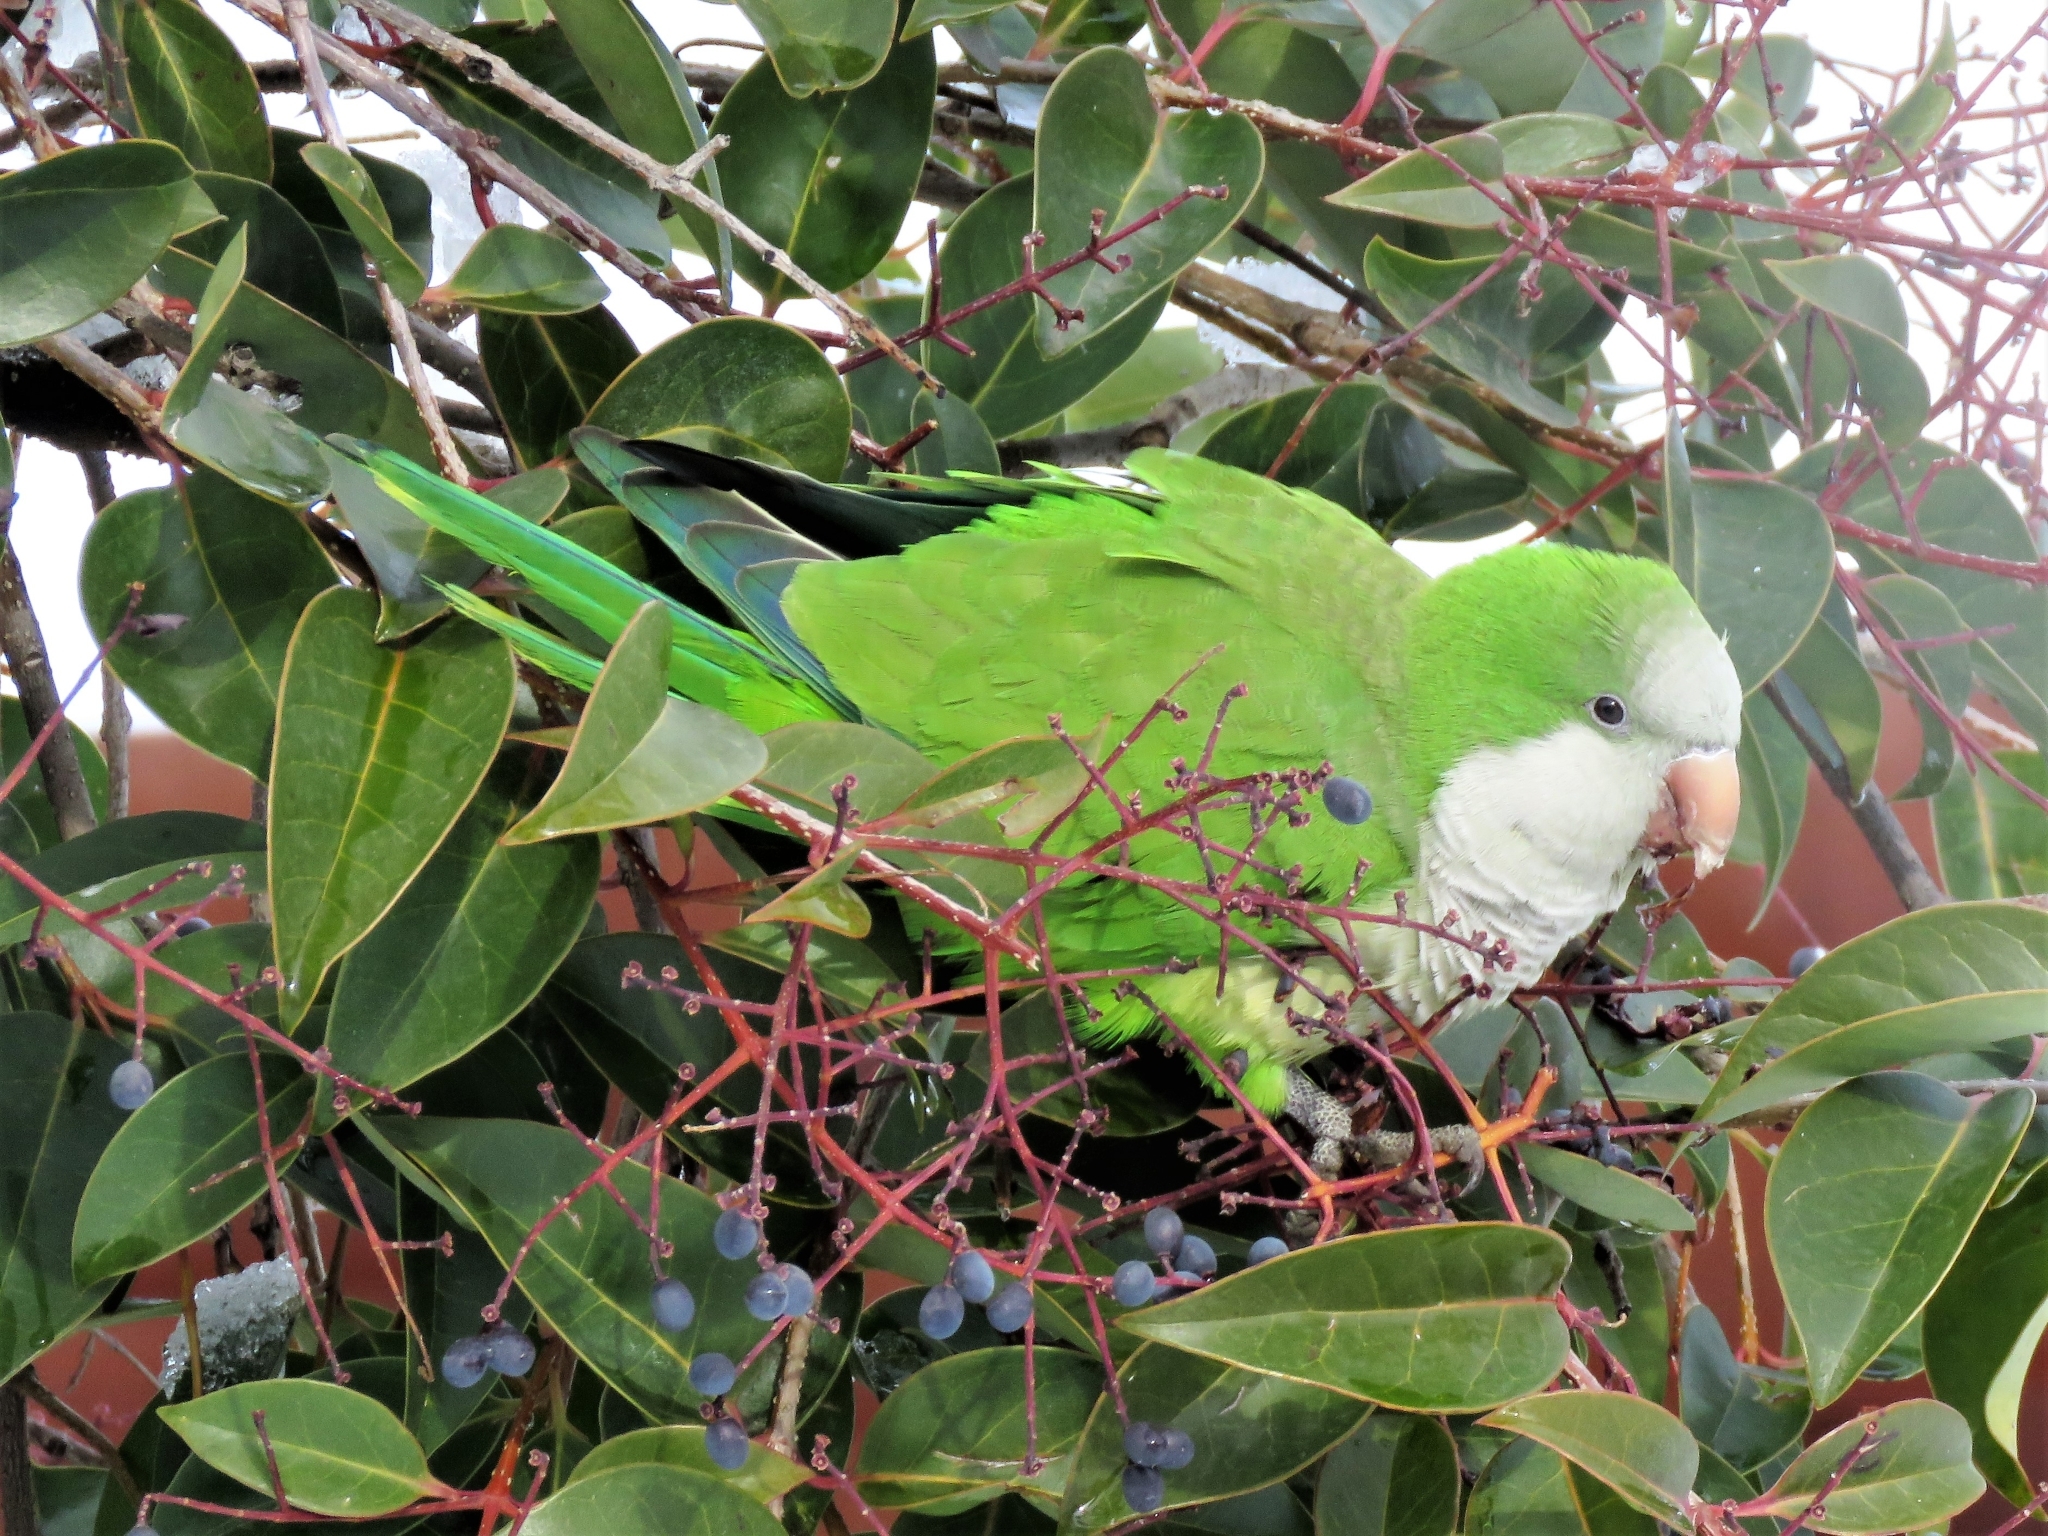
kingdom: Animalia
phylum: Chordata
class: Aves
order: Psittaciformes
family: Psittacidae
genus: Myiopsitta
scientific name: Myiopsitta monachus
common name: Monk parakeet
